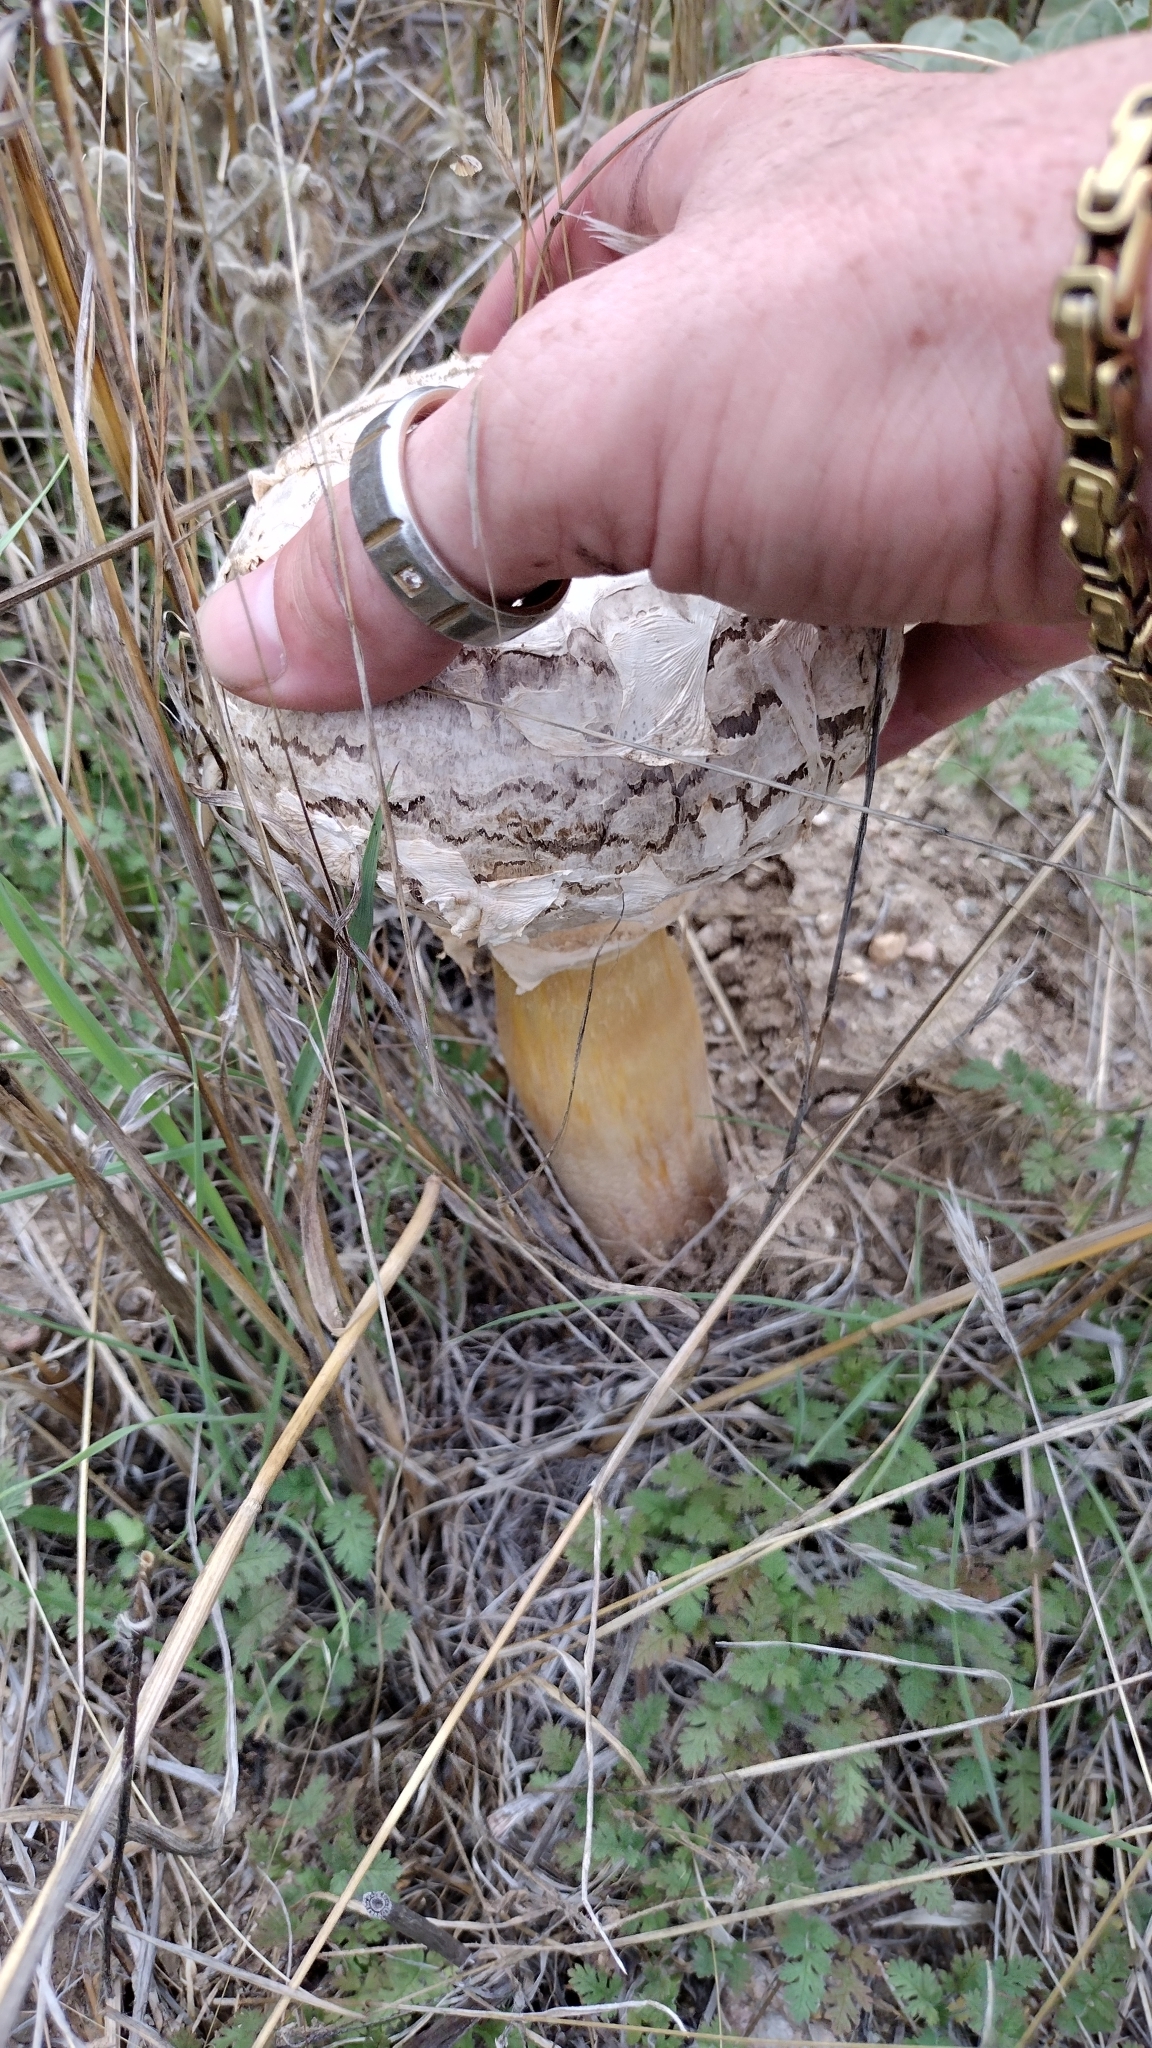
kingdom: Fungi
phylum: Basidiomycota
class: Agaricomycetes
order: Agaricales
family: Agaricaceae
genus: Agaricus
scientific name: Agaricus deserticola
